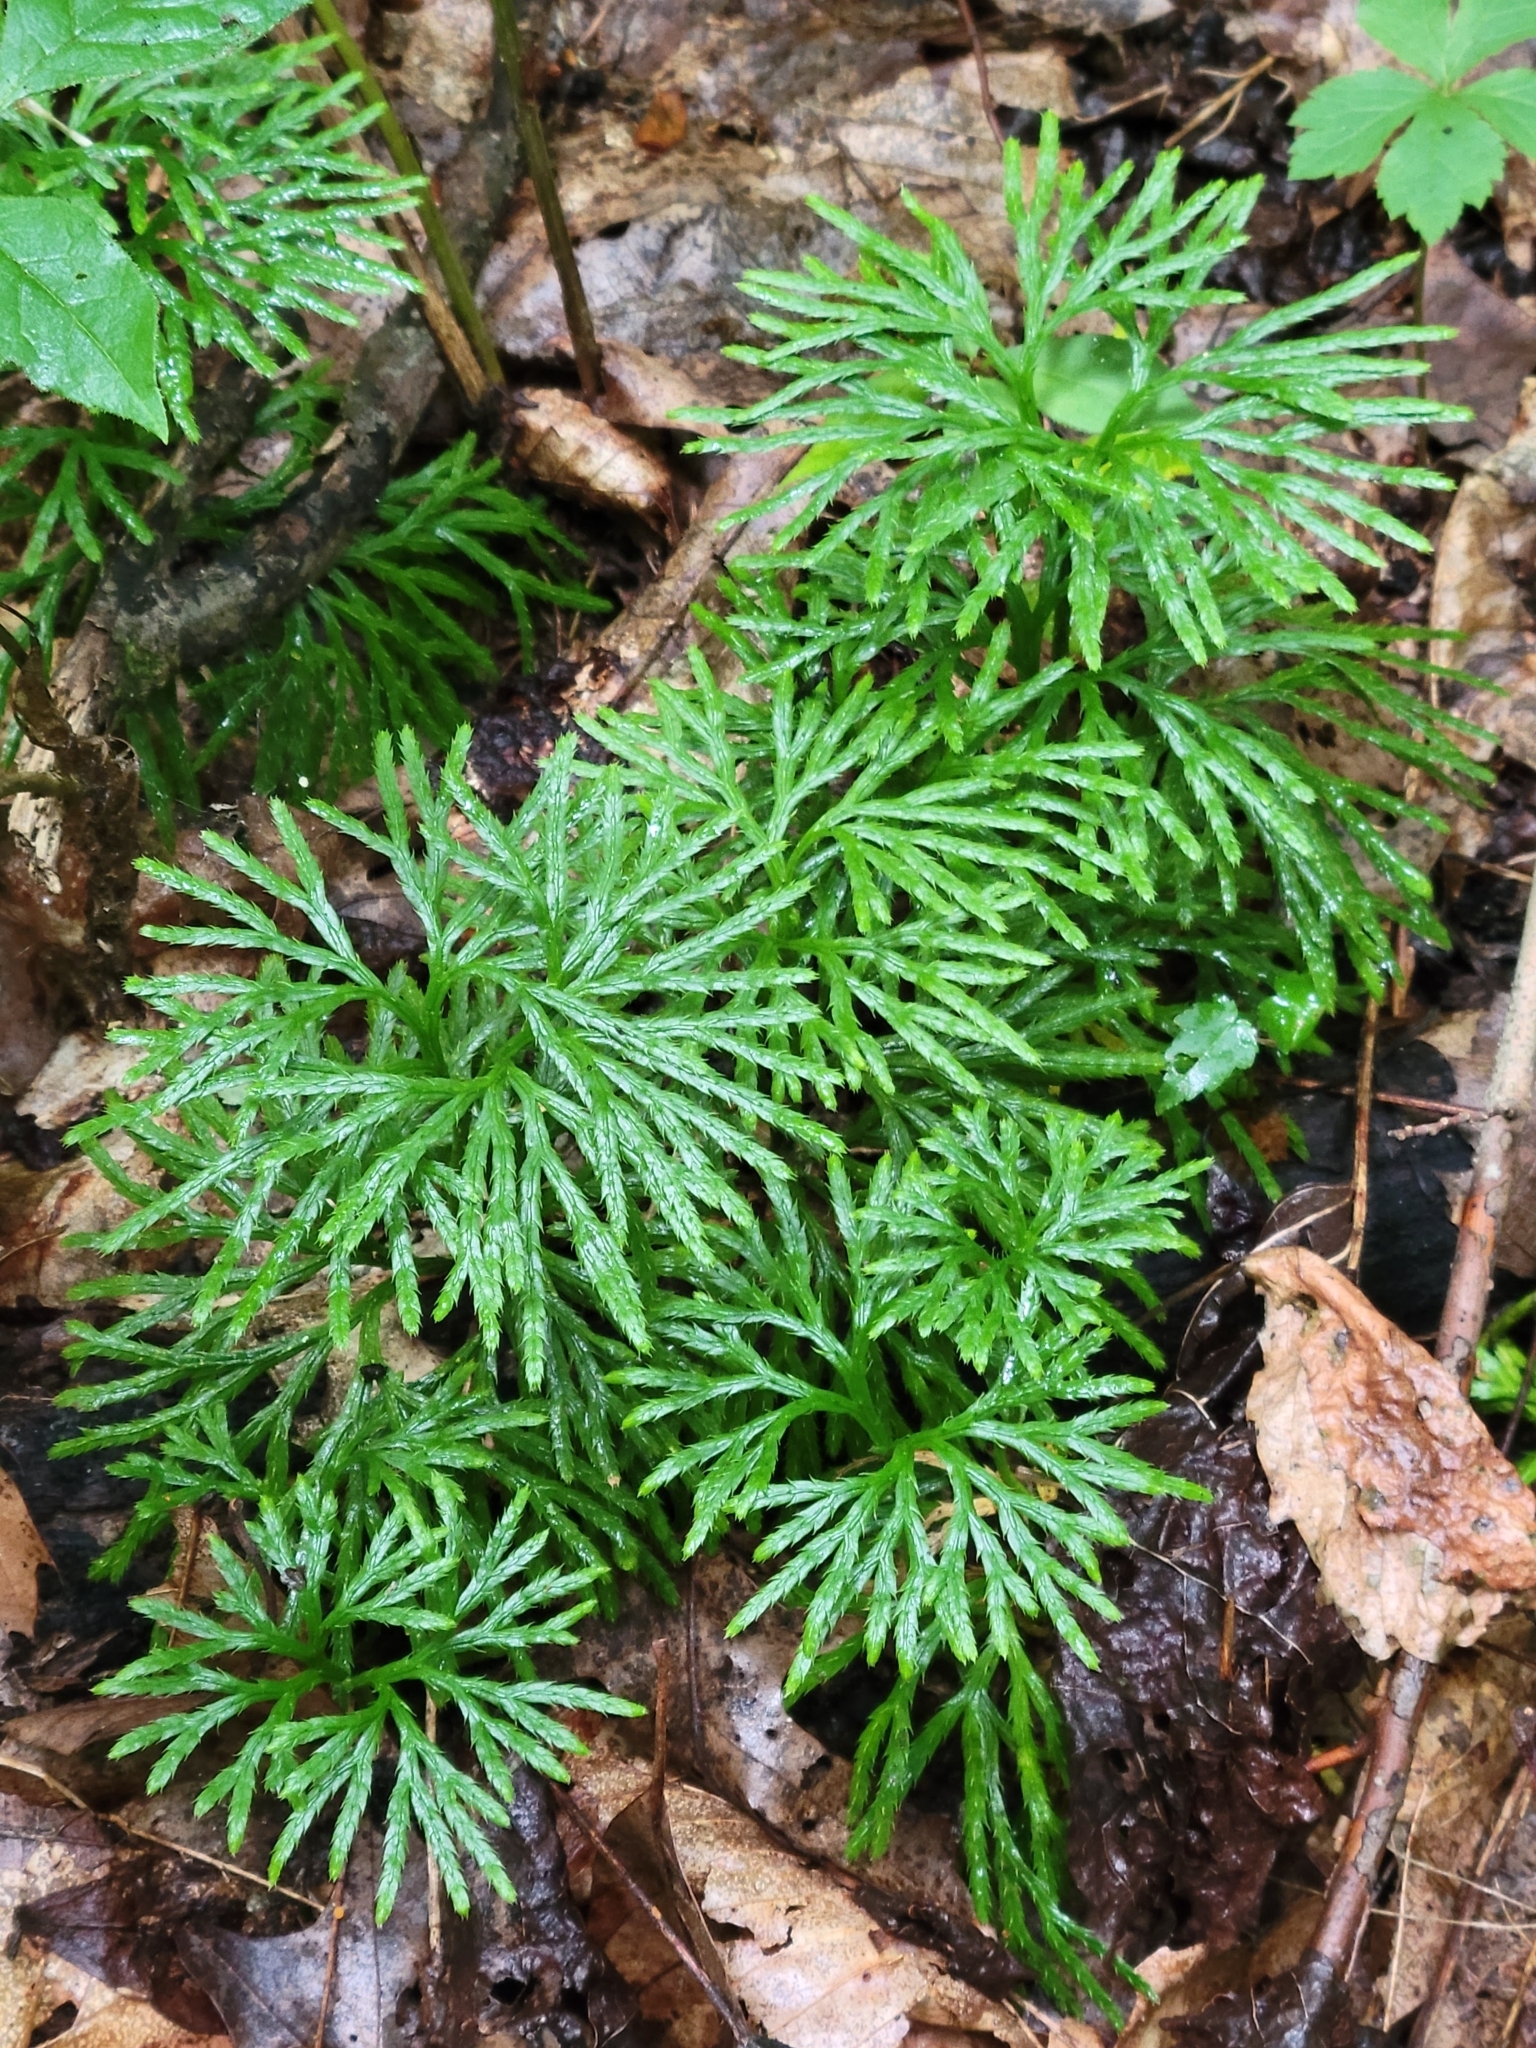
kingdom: Plantae
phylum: Tracheophyta
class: Lycopodiopsida
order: Lycopodiales
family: Lycopodiaceae
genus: Diphasiastrum
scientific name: Diphasiastrum digitatum
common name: Southern running-pine
